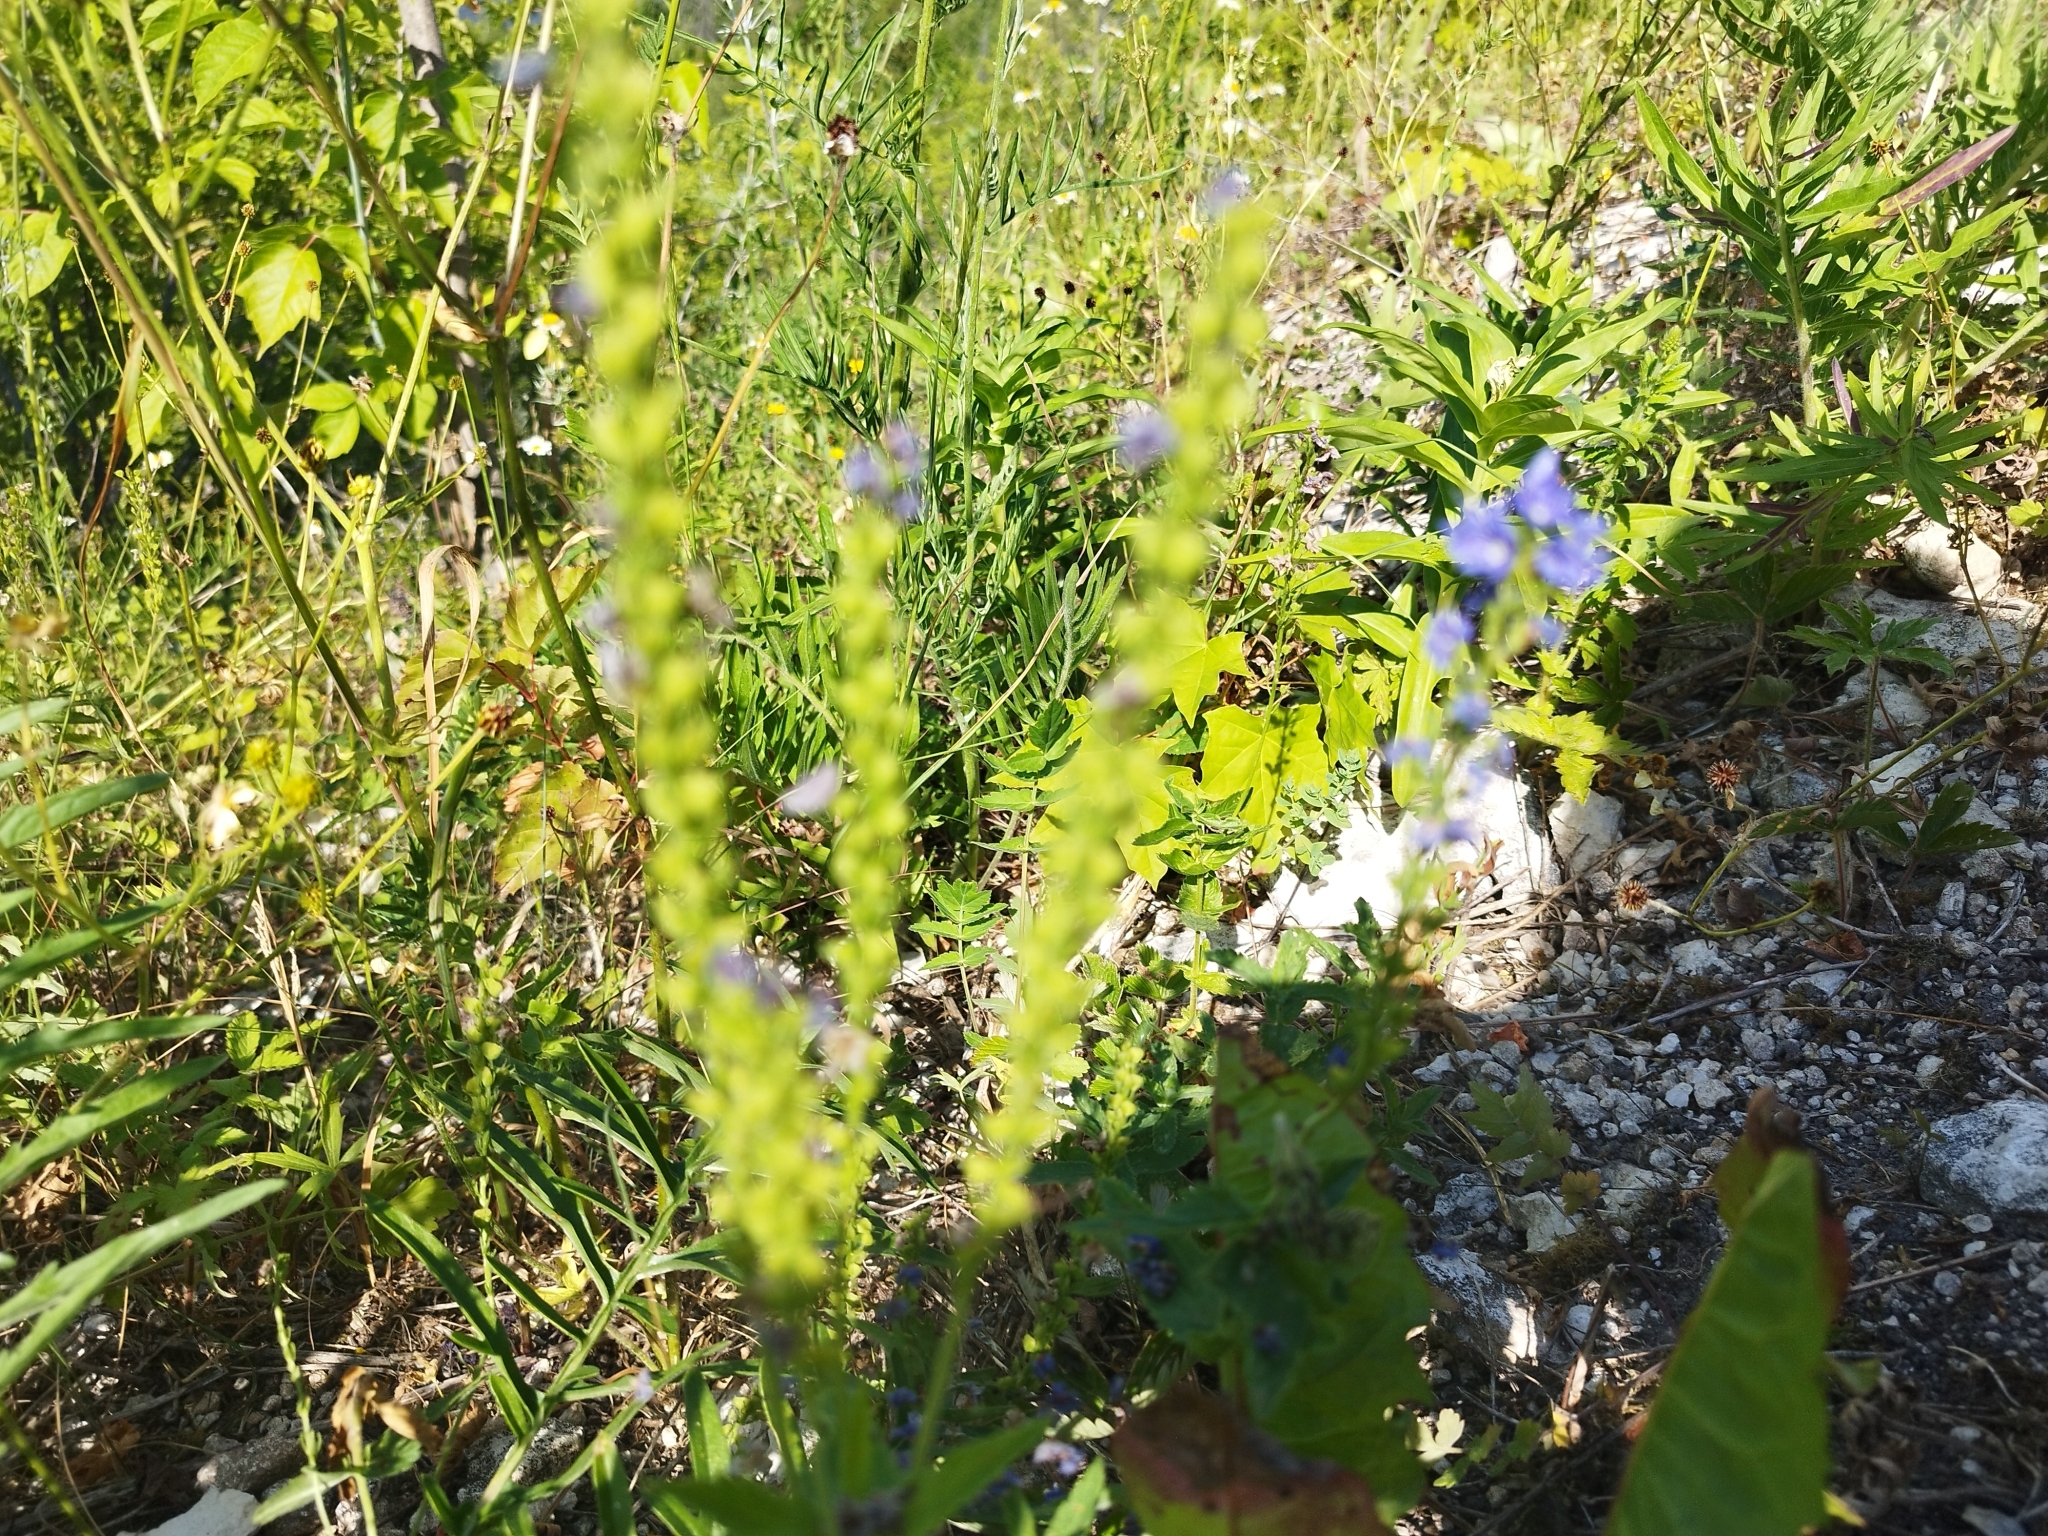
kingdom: Plantae
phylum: Tracheophyta
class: Magnoliopsida
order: Lamiales
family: Plantaginaceae
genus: Veronica
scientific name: Veronica teucrium
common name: Large speedwell
